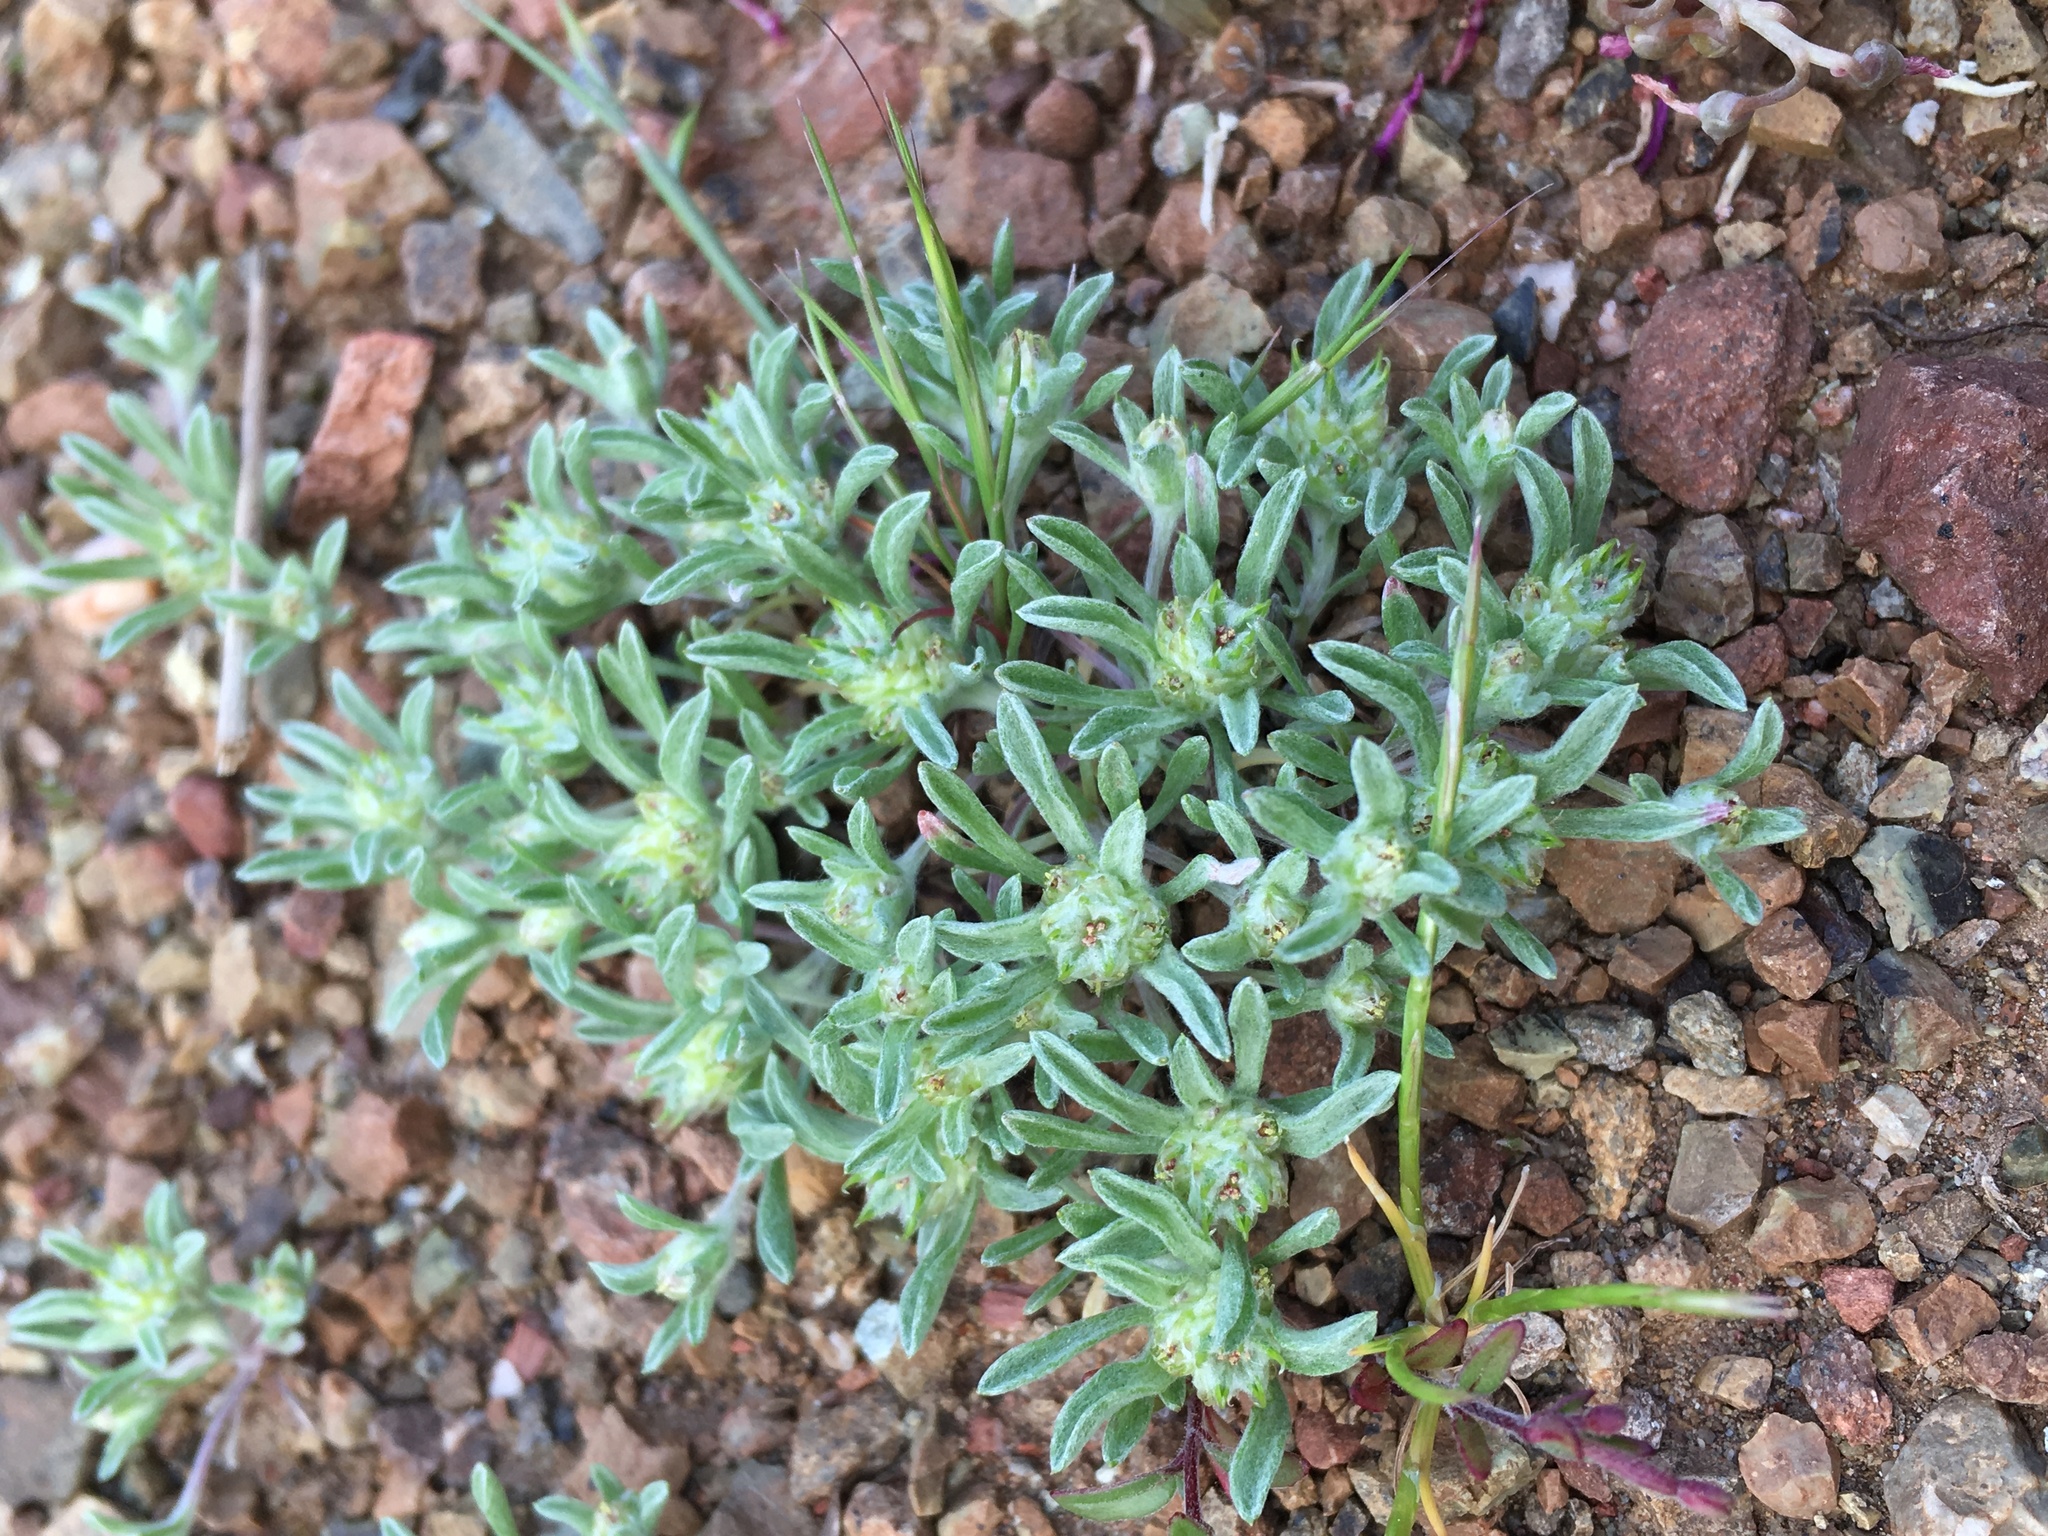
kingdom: Plantae
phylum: Tracheophyta
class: Magnoliopsida
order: Asterales
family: Asteraceae
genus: Ancistrocarphus
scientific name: Ancistrocarphus filagineus
